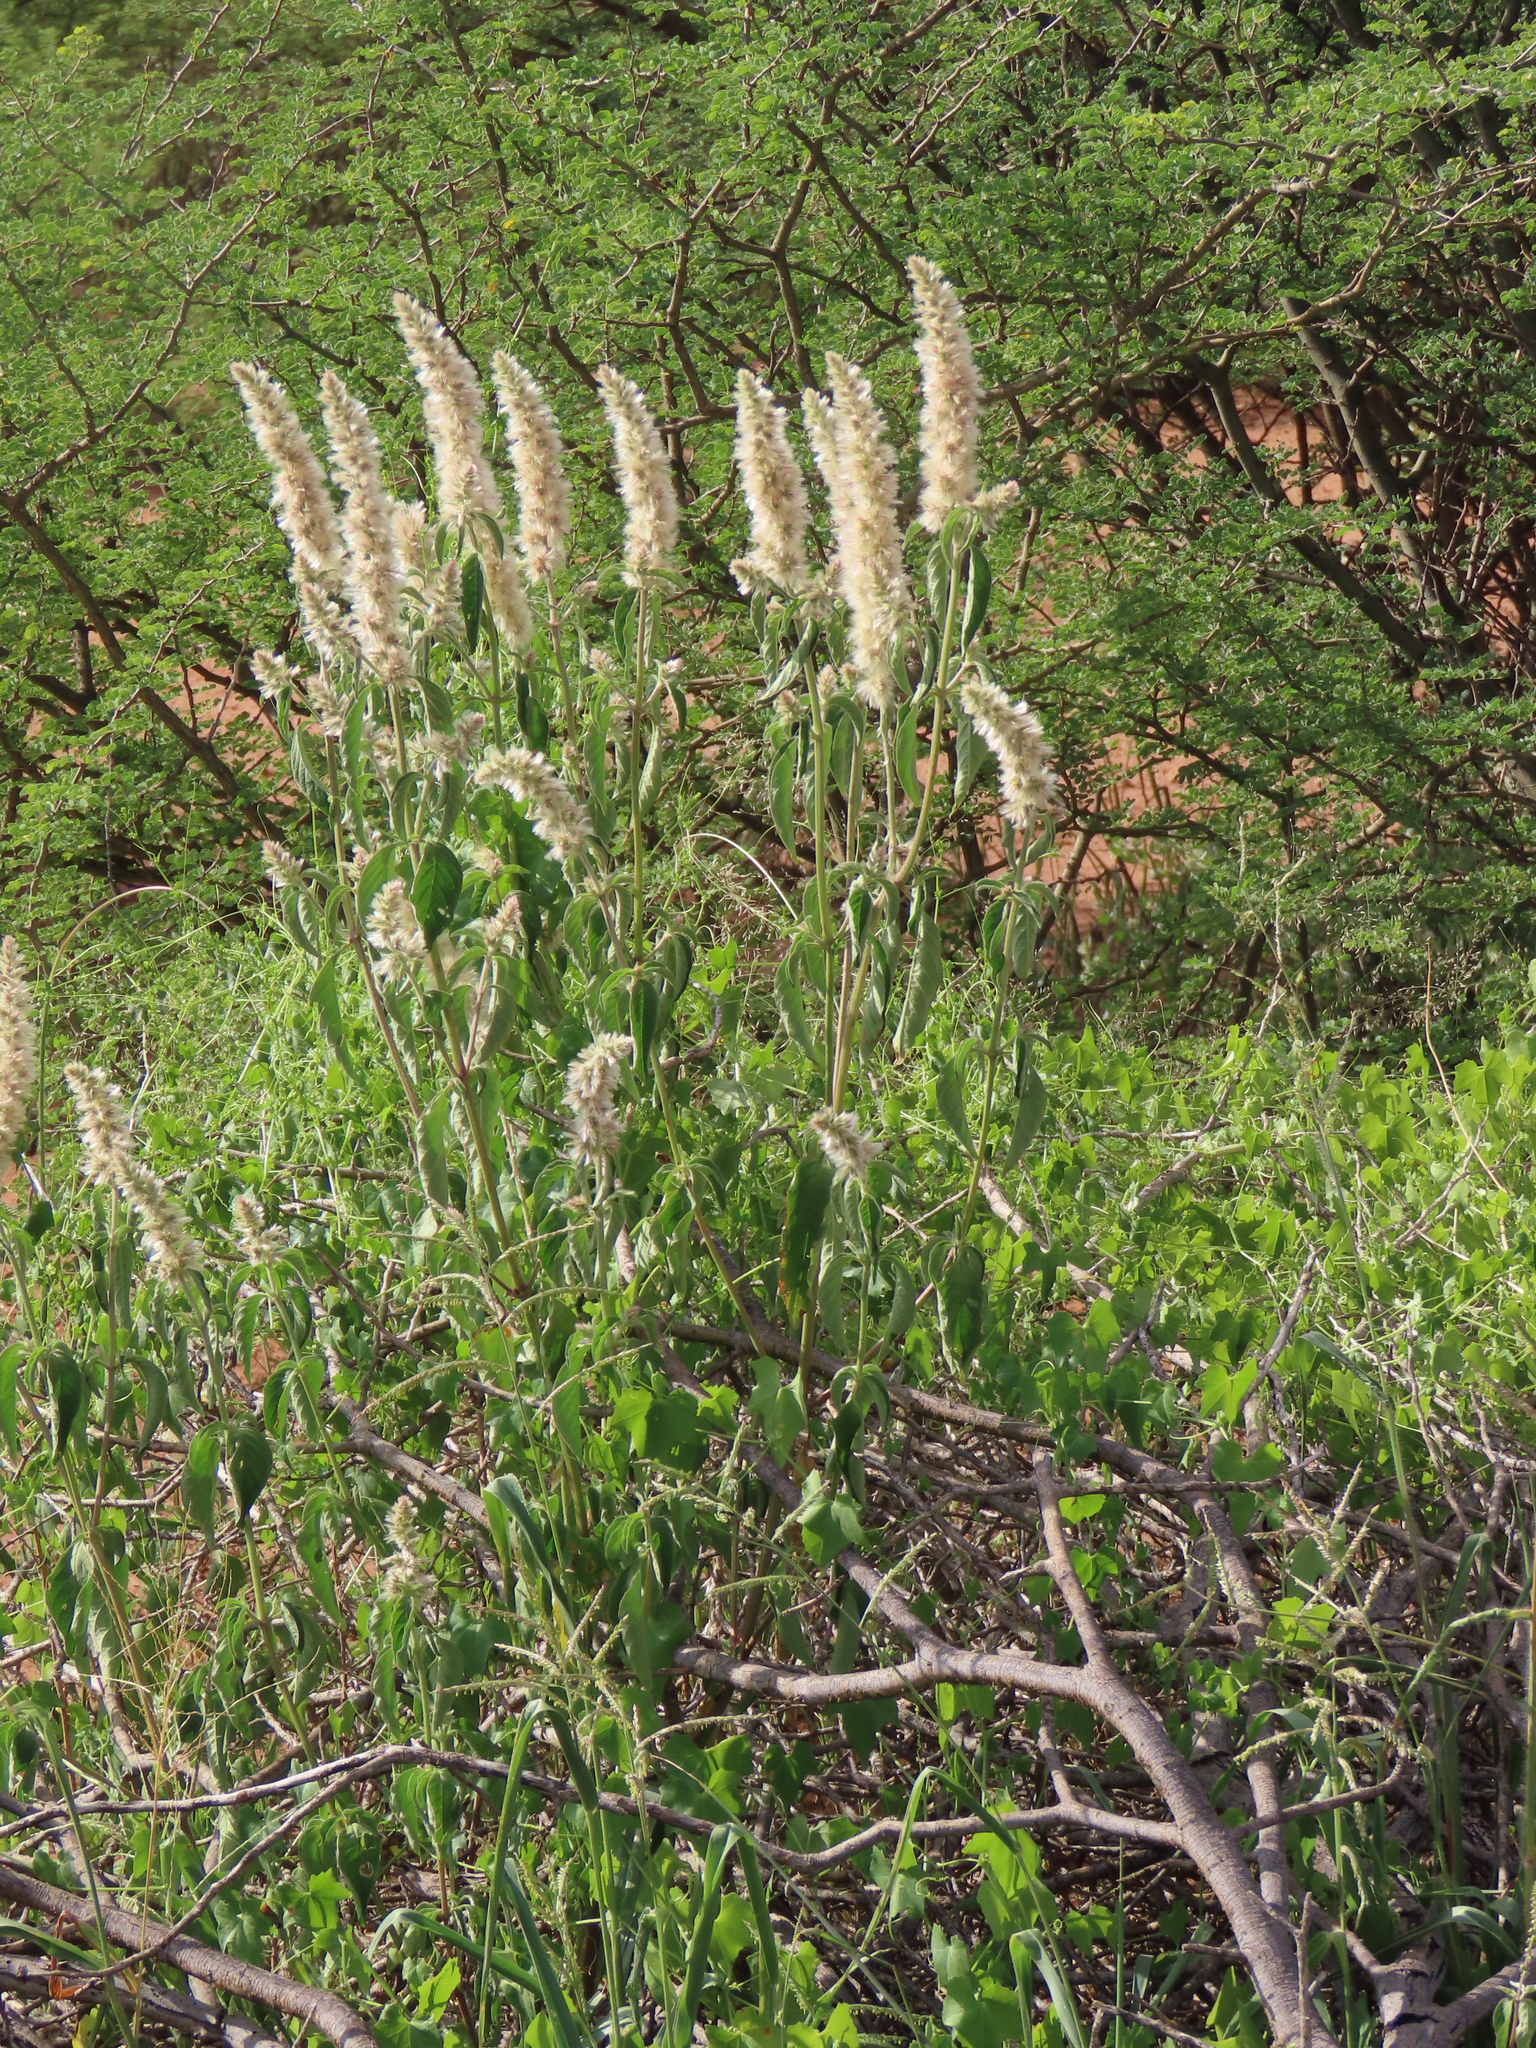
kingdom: Plantae
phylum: Tracheophyta
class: Magnoliopsida
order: Caryophyllales
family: Amaranthaceae
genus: Nelsia
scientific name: Nelsia quadrangula
